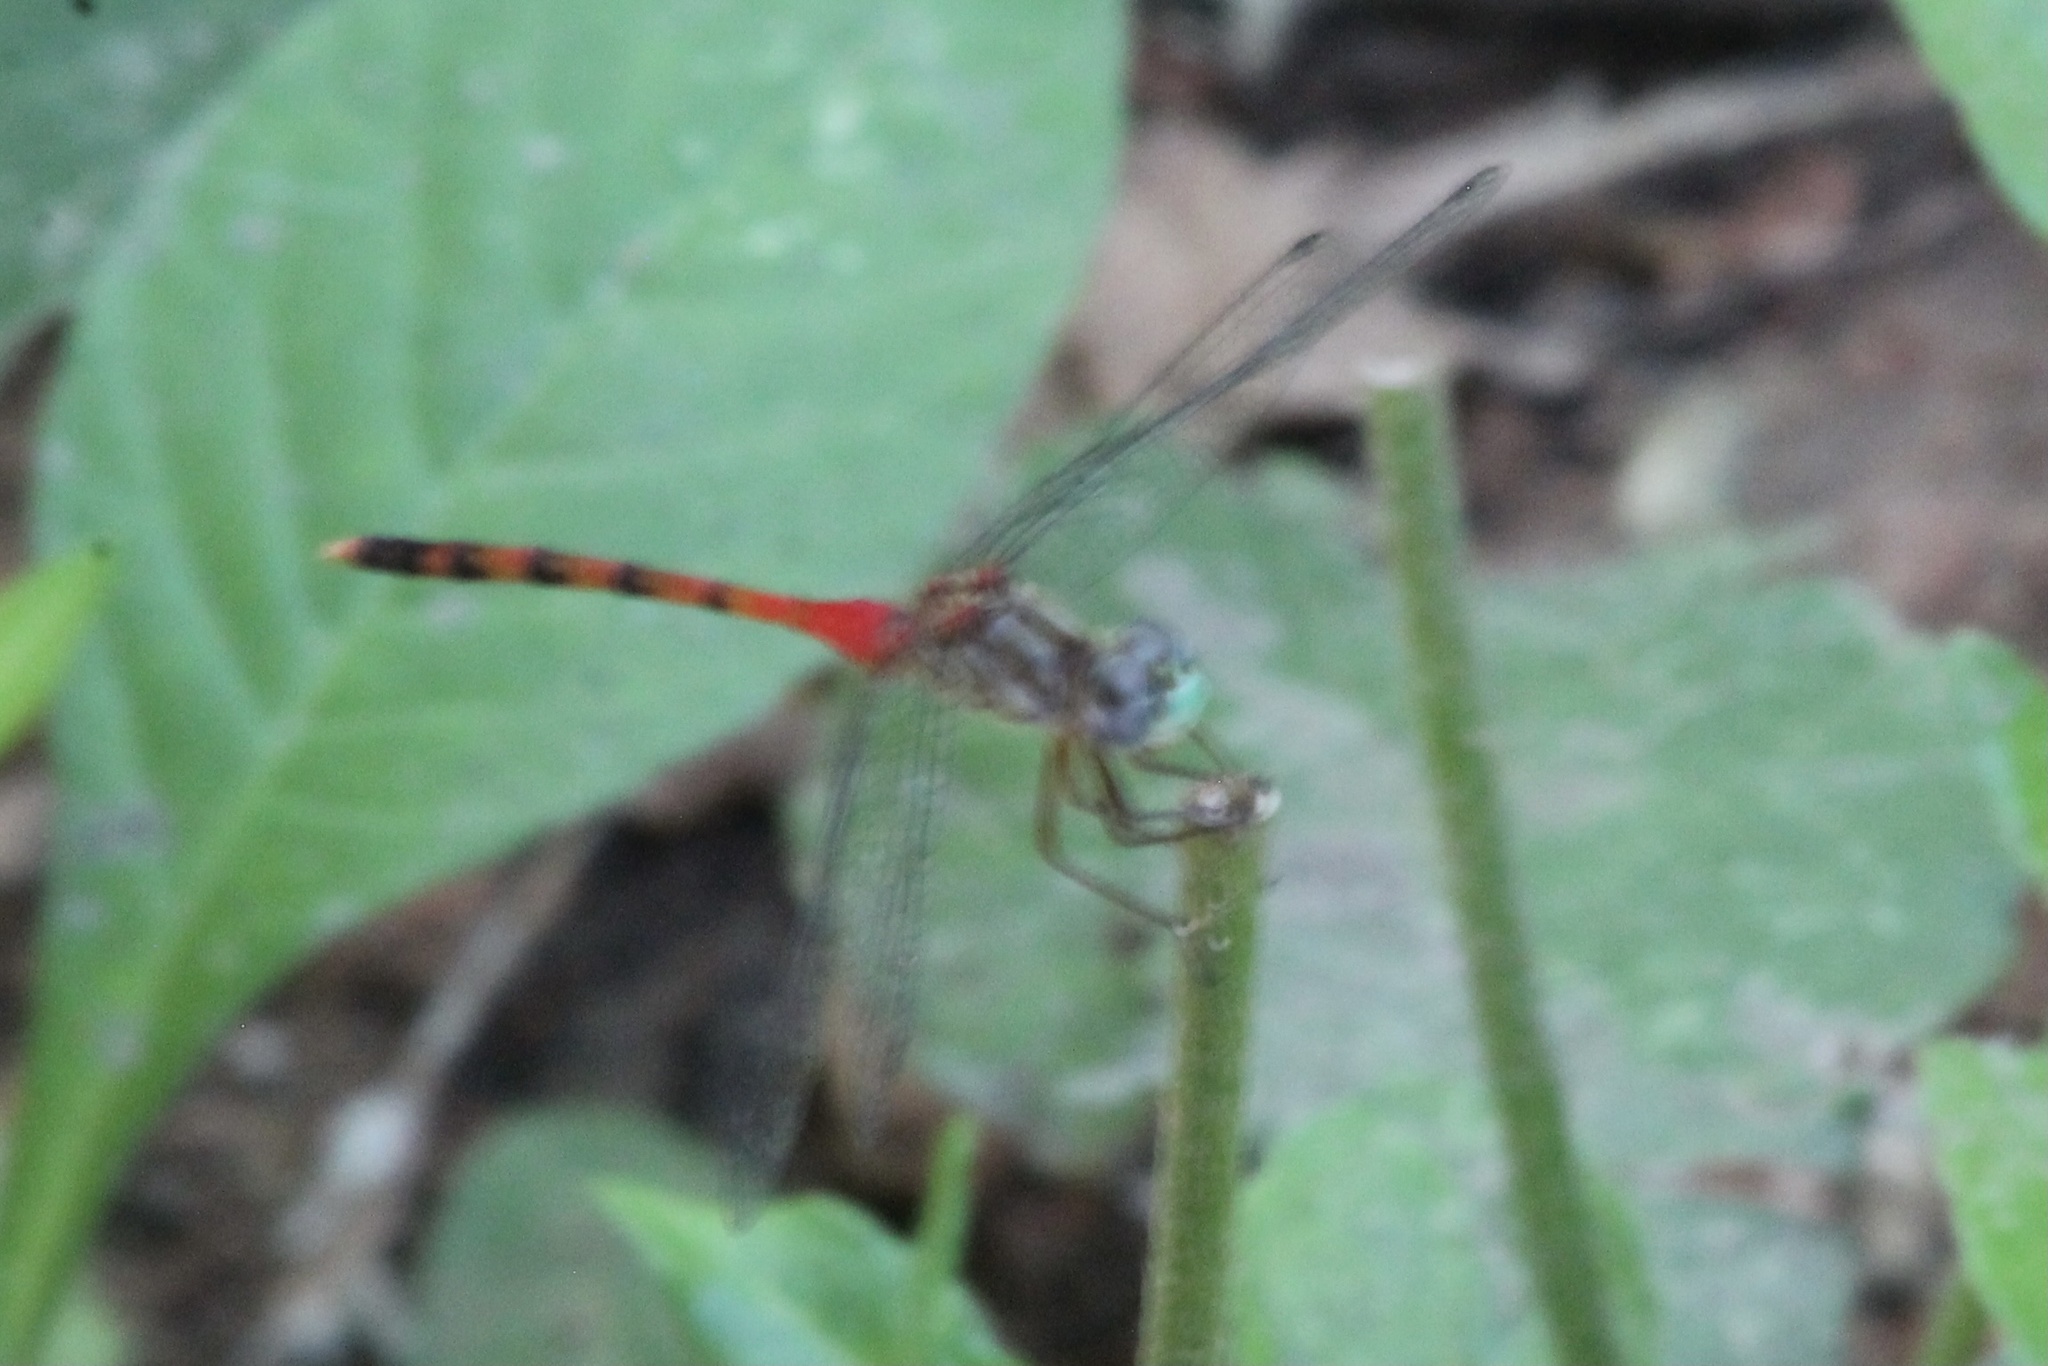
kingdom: Animalia
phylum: Arthropoda
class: Insecta
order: Odonata
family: Libellulidae
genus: Sympetrum
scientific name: Sympetrum ambiguum
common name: Blue-faced meadowhawk
